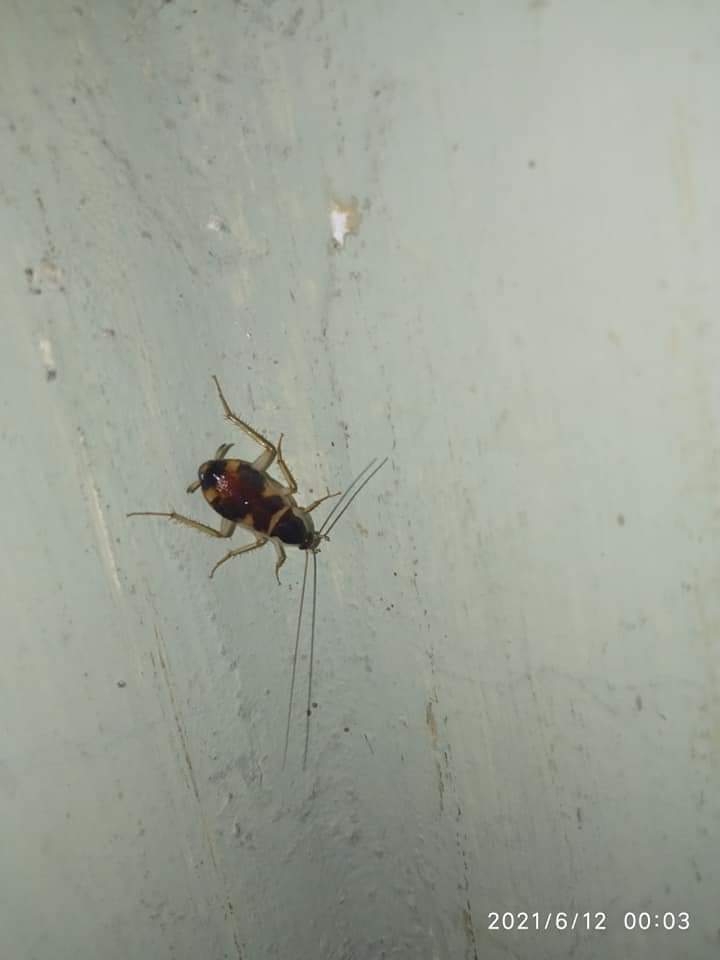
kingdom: Animalia
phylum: Arthropoda
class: Insecta
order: Blattodea
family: Ectobiidae
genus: Supella
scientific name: Supella longipalpa
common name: Brown-banded cockroach
